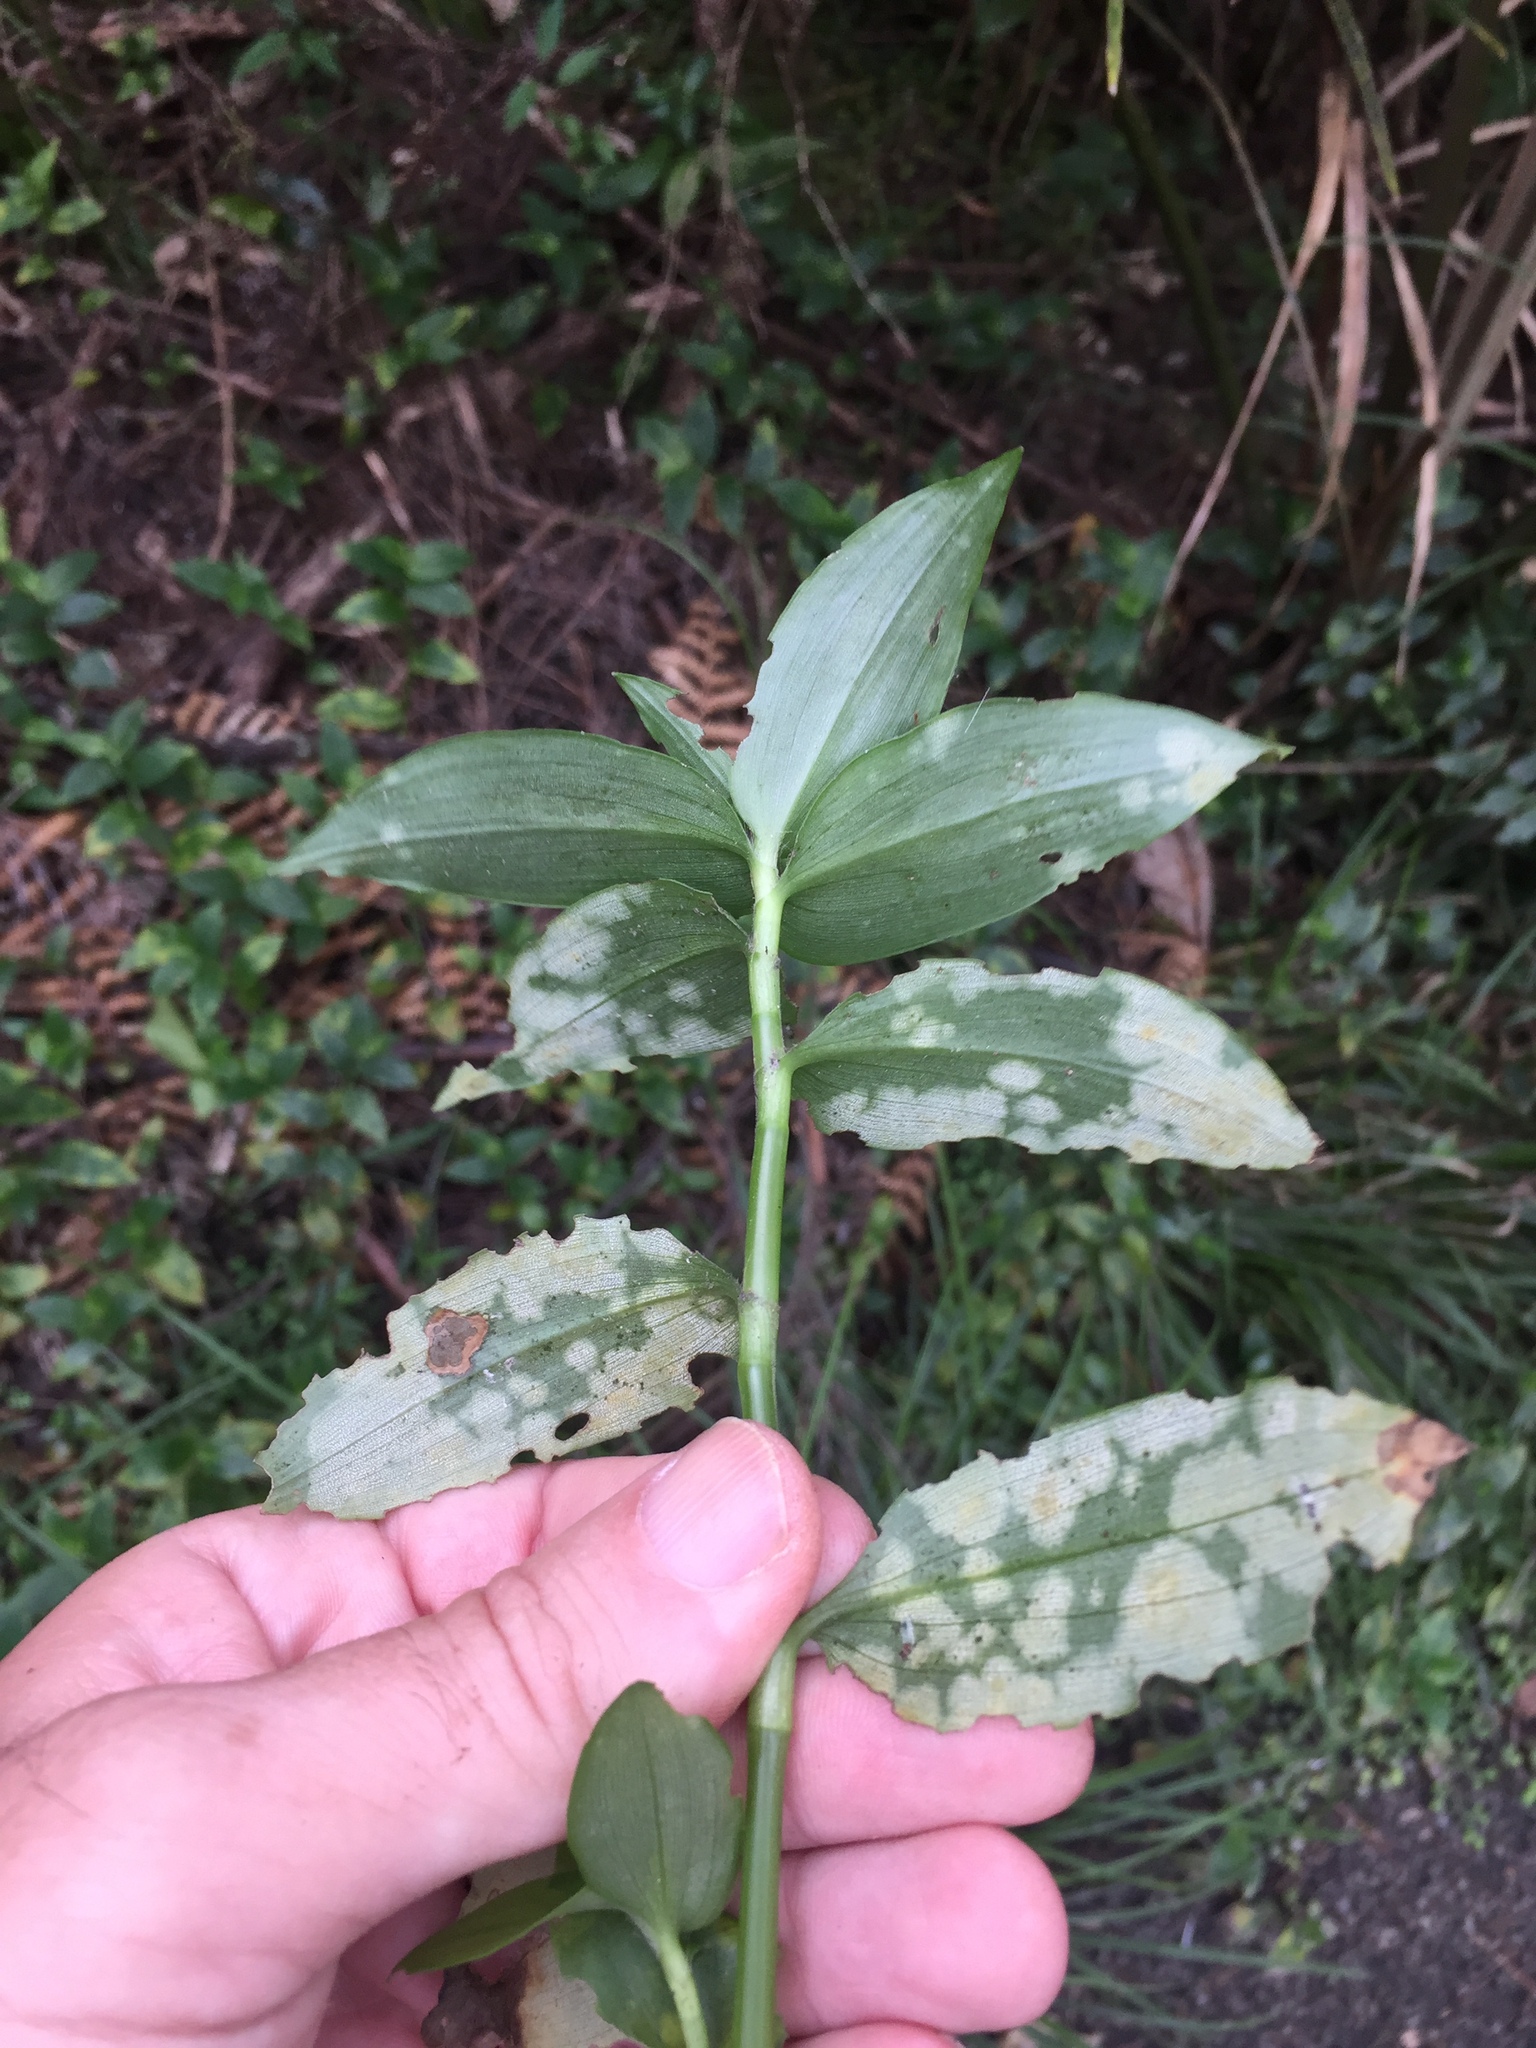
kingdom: Fungi
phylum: Basidiomycota
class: Exobasidiomycetes
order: Exobasidiales
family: Brachybasidiaceae
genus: Kordyana
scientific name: Kordyana brasiliensis
